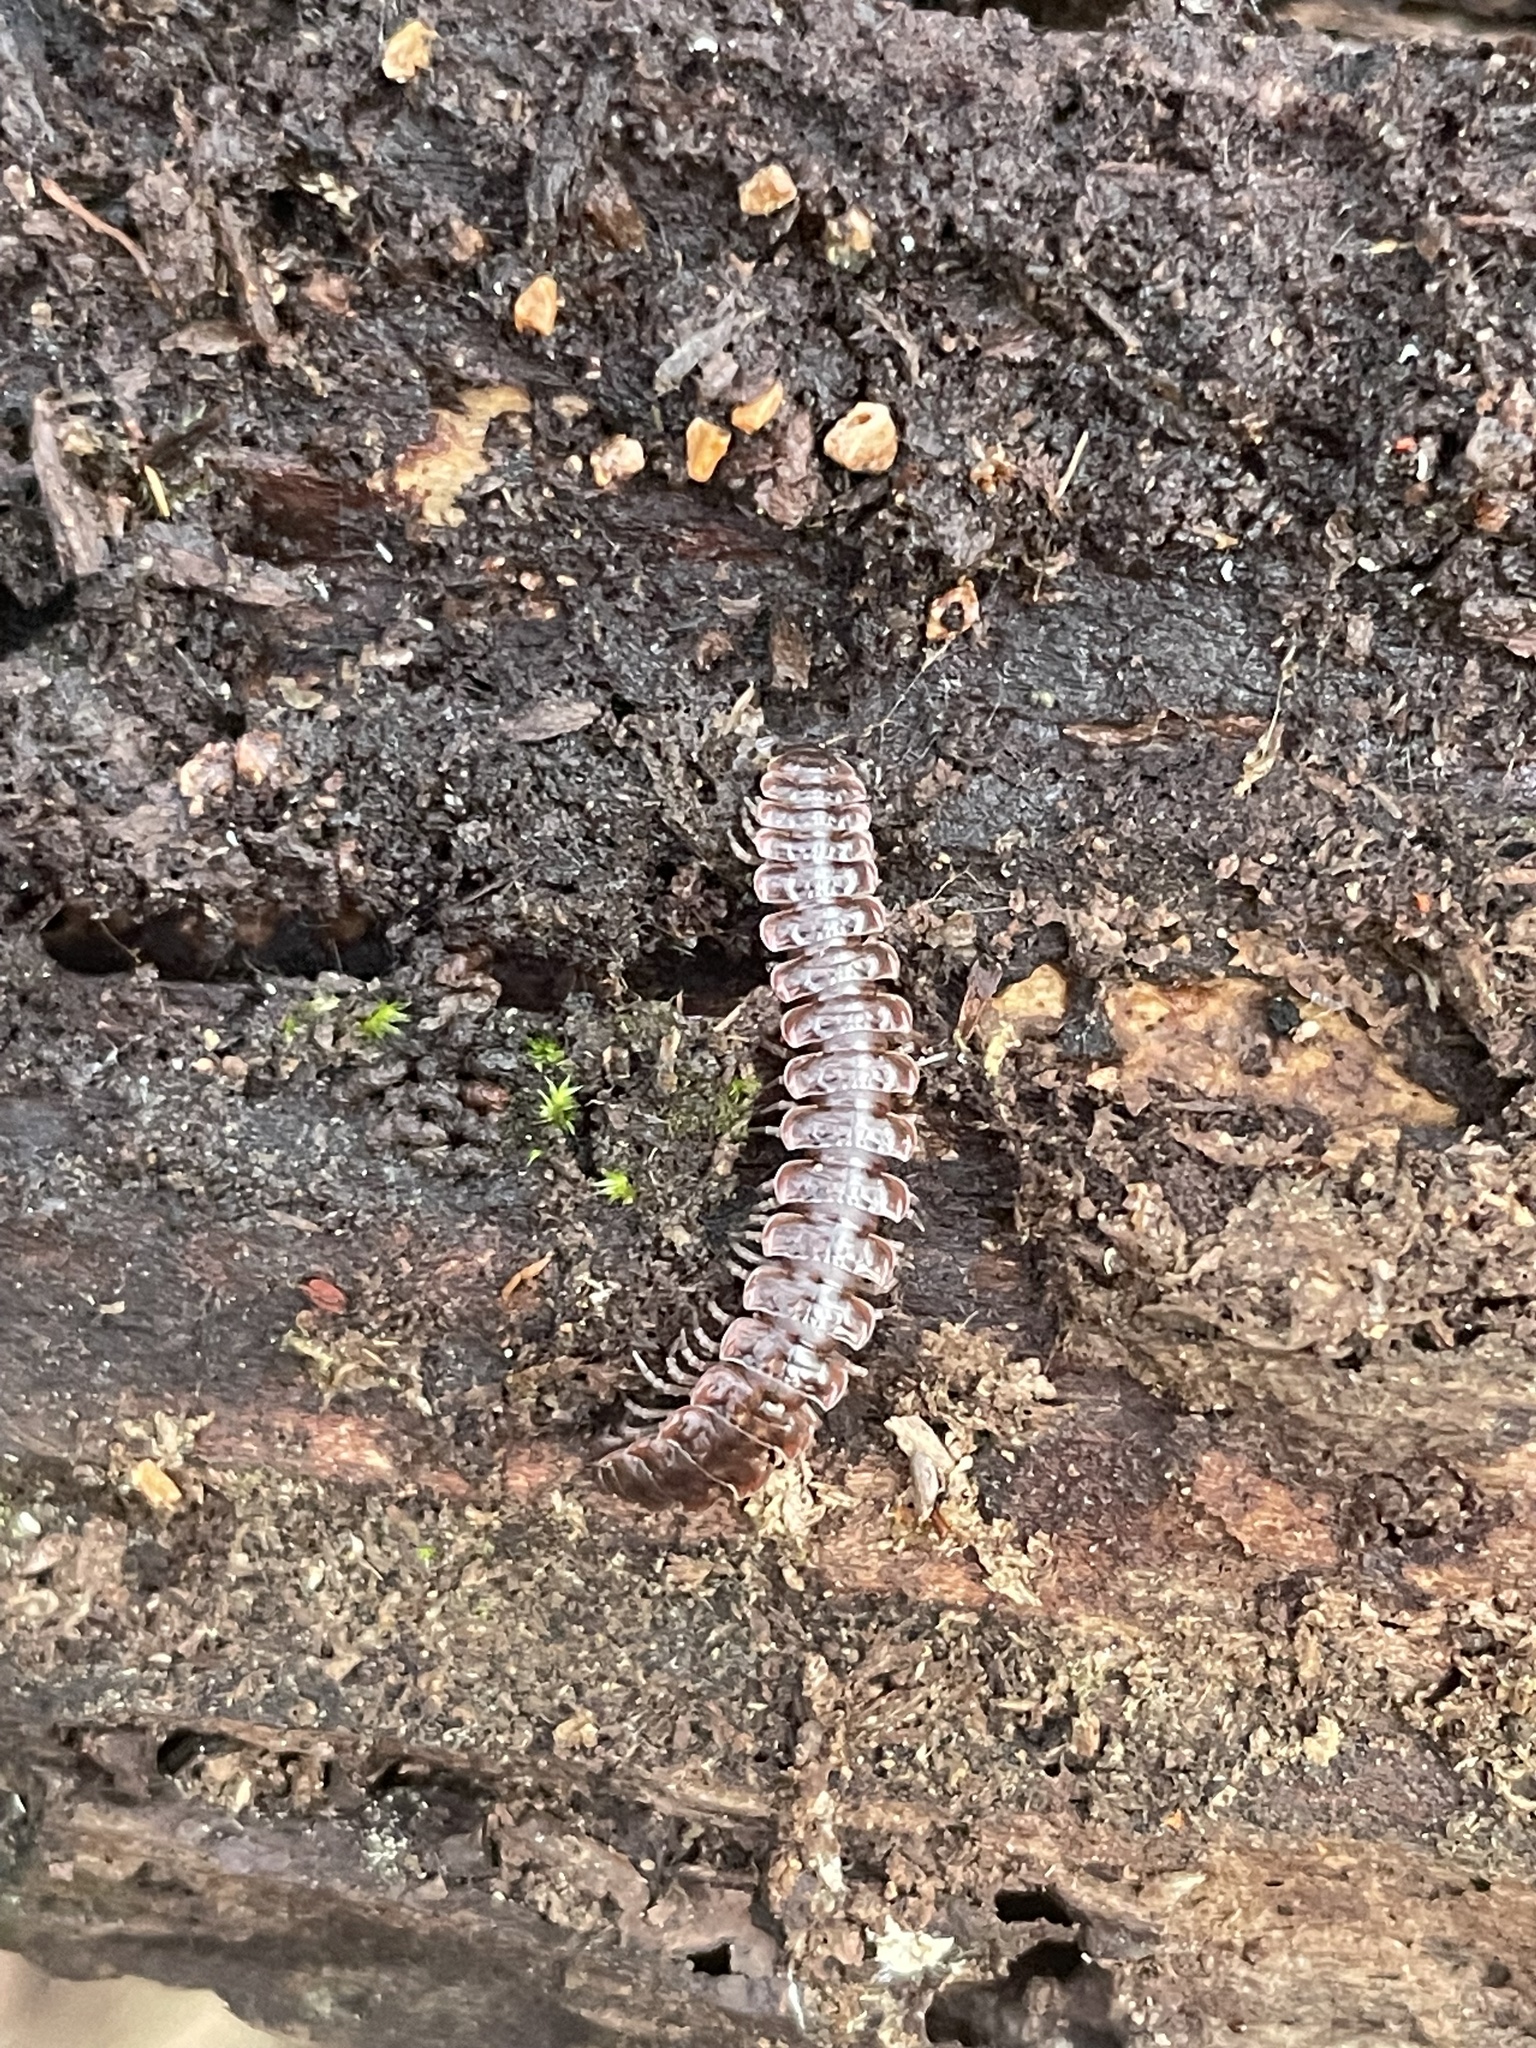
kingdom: Animalia
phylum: Arthropoda
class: Diplopoda
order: Polydesmida
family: Polydesmidae
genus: Pseudopolydesmus
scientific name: Pseudopolydesmus serratus
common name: Common pink flat-back millipede
